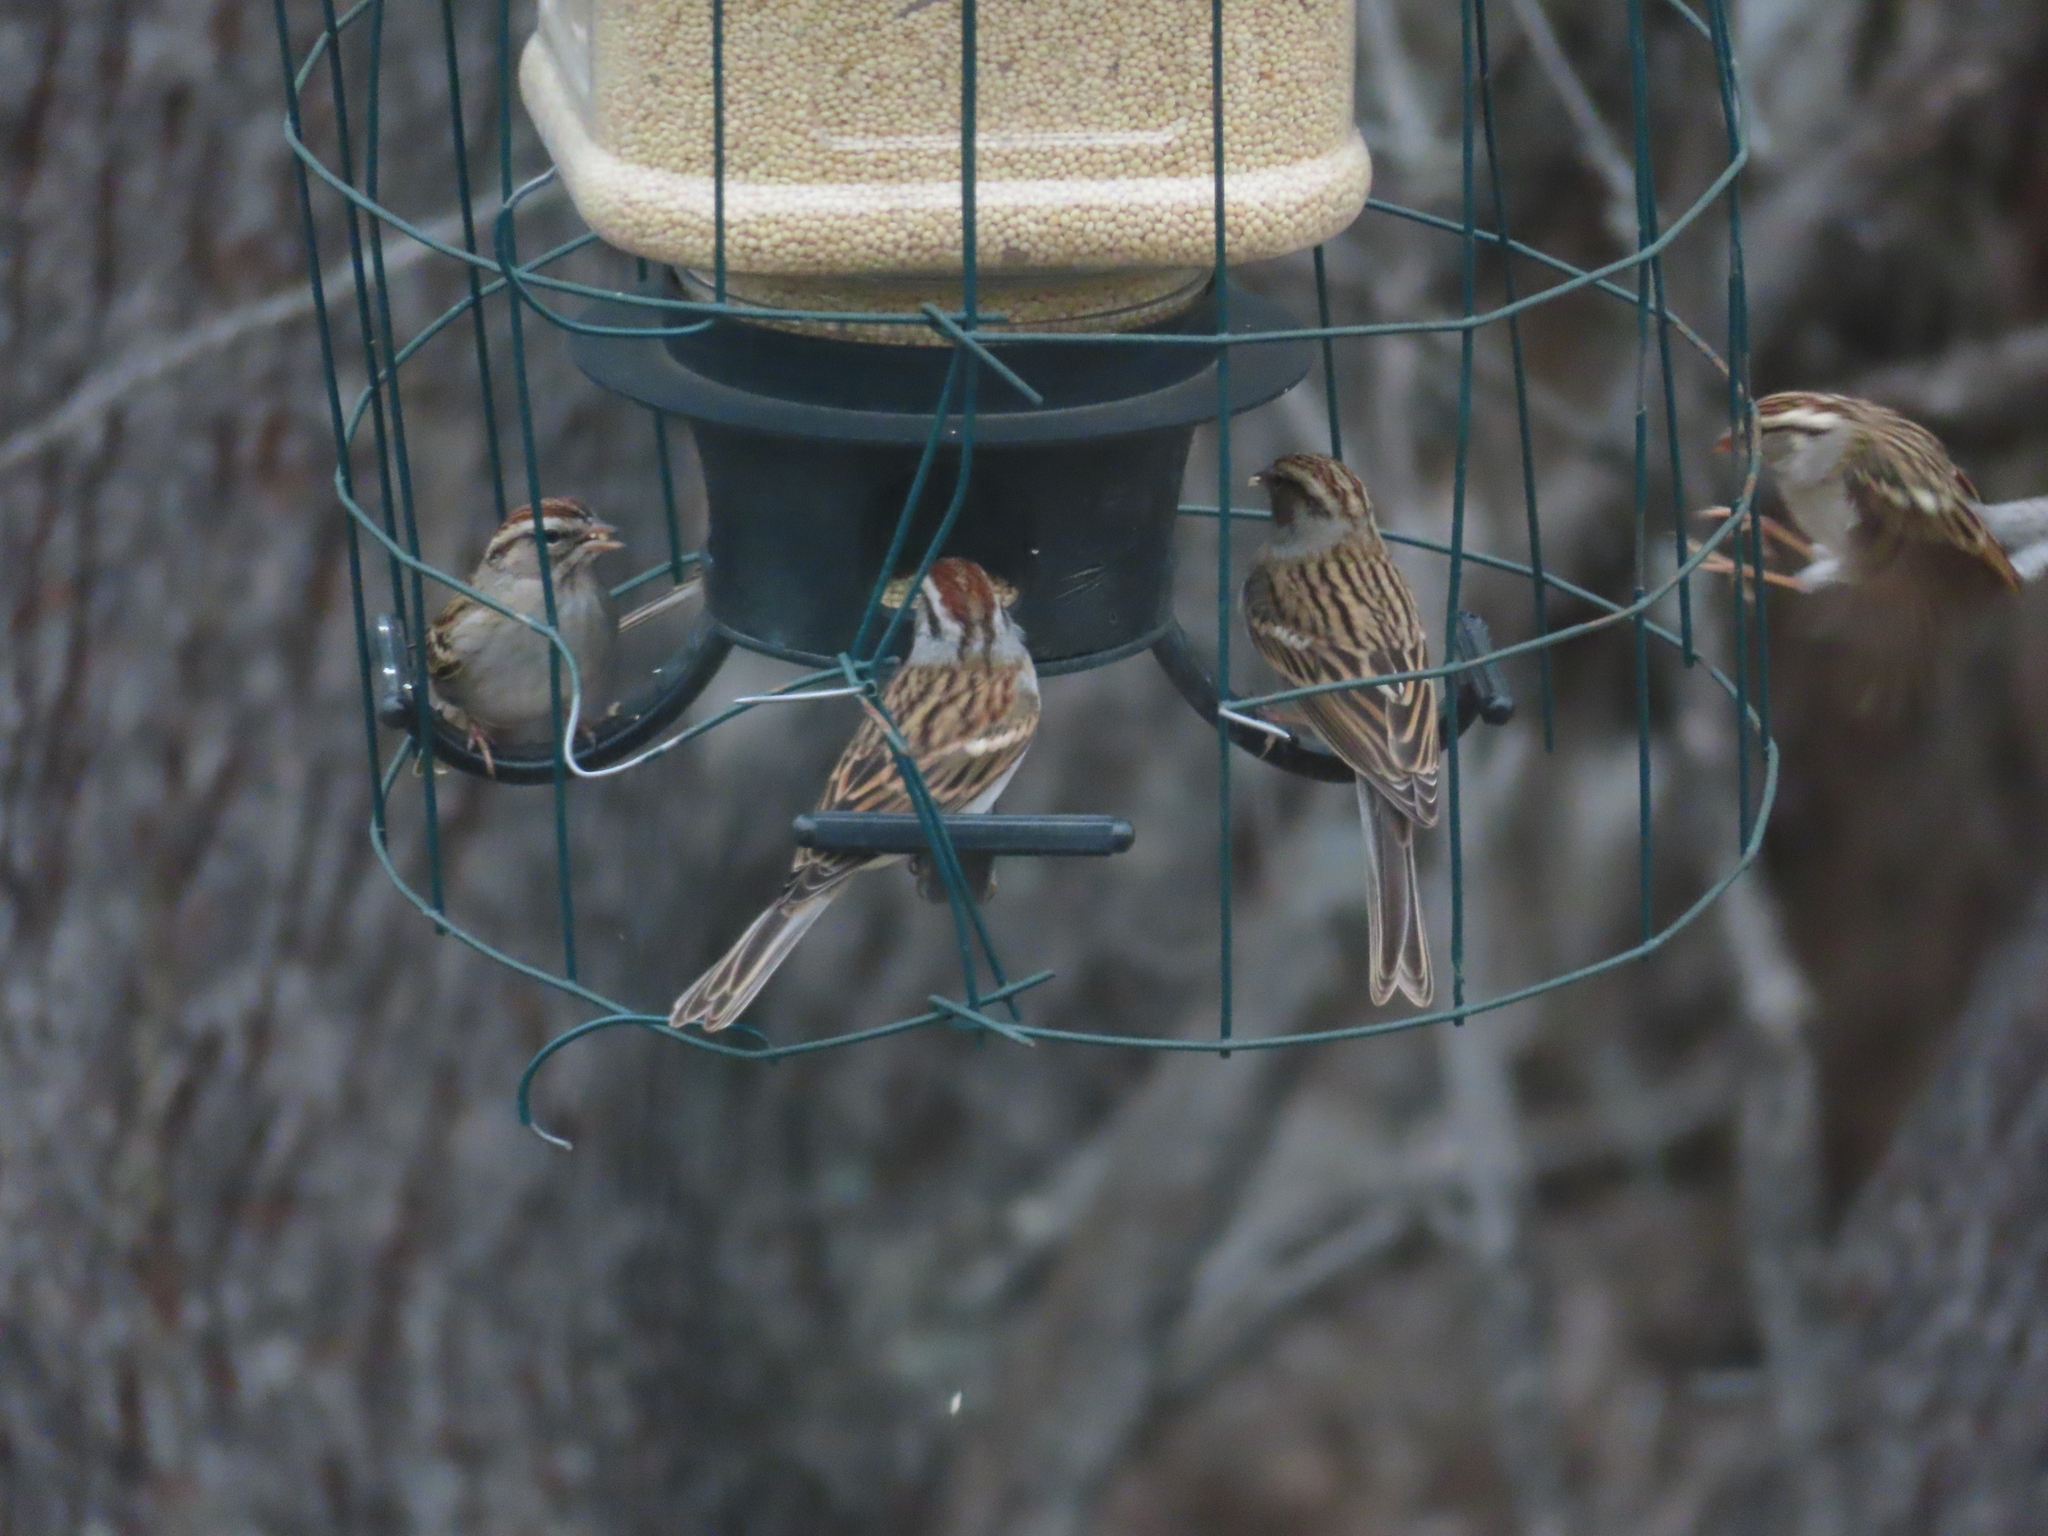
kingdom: Animalia
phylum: Chordata
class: Aves
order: Passeriformes
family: Passerellidae
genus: Spizella
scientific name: Spizella passerina
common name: Chipping sparrow
